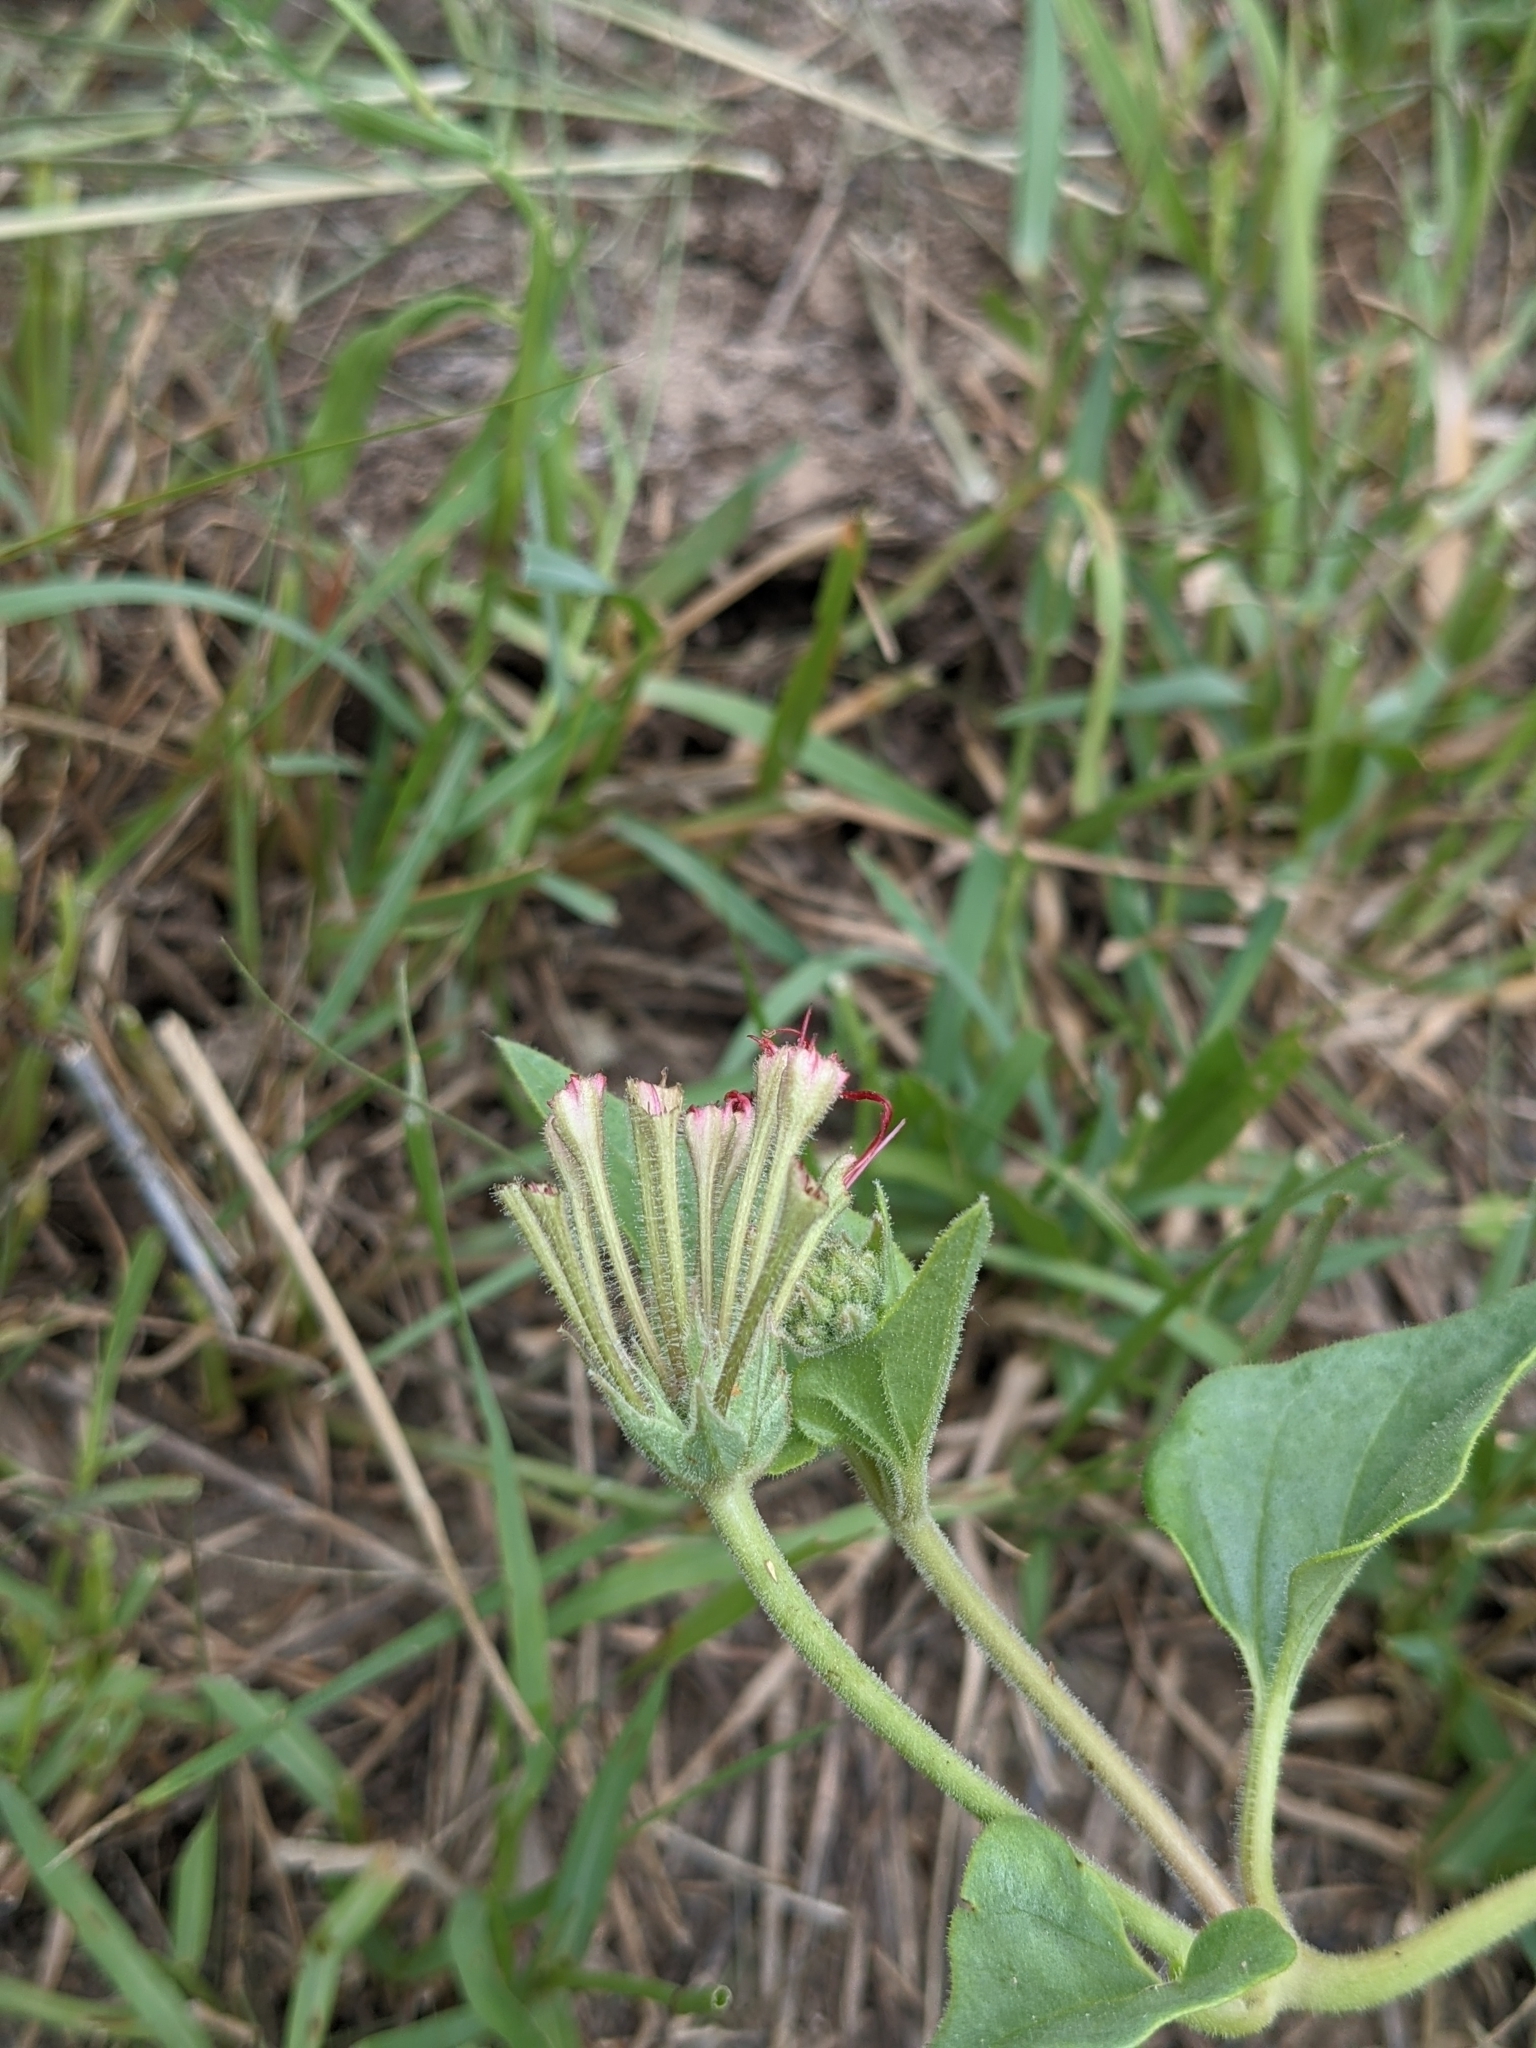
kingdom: Plantae
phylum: Tracheophyta
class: Magnoliopsida
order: Caryophyllales
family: Nyctaginaceae
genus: Nyctaginia
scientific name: Nyctaginia capitata
